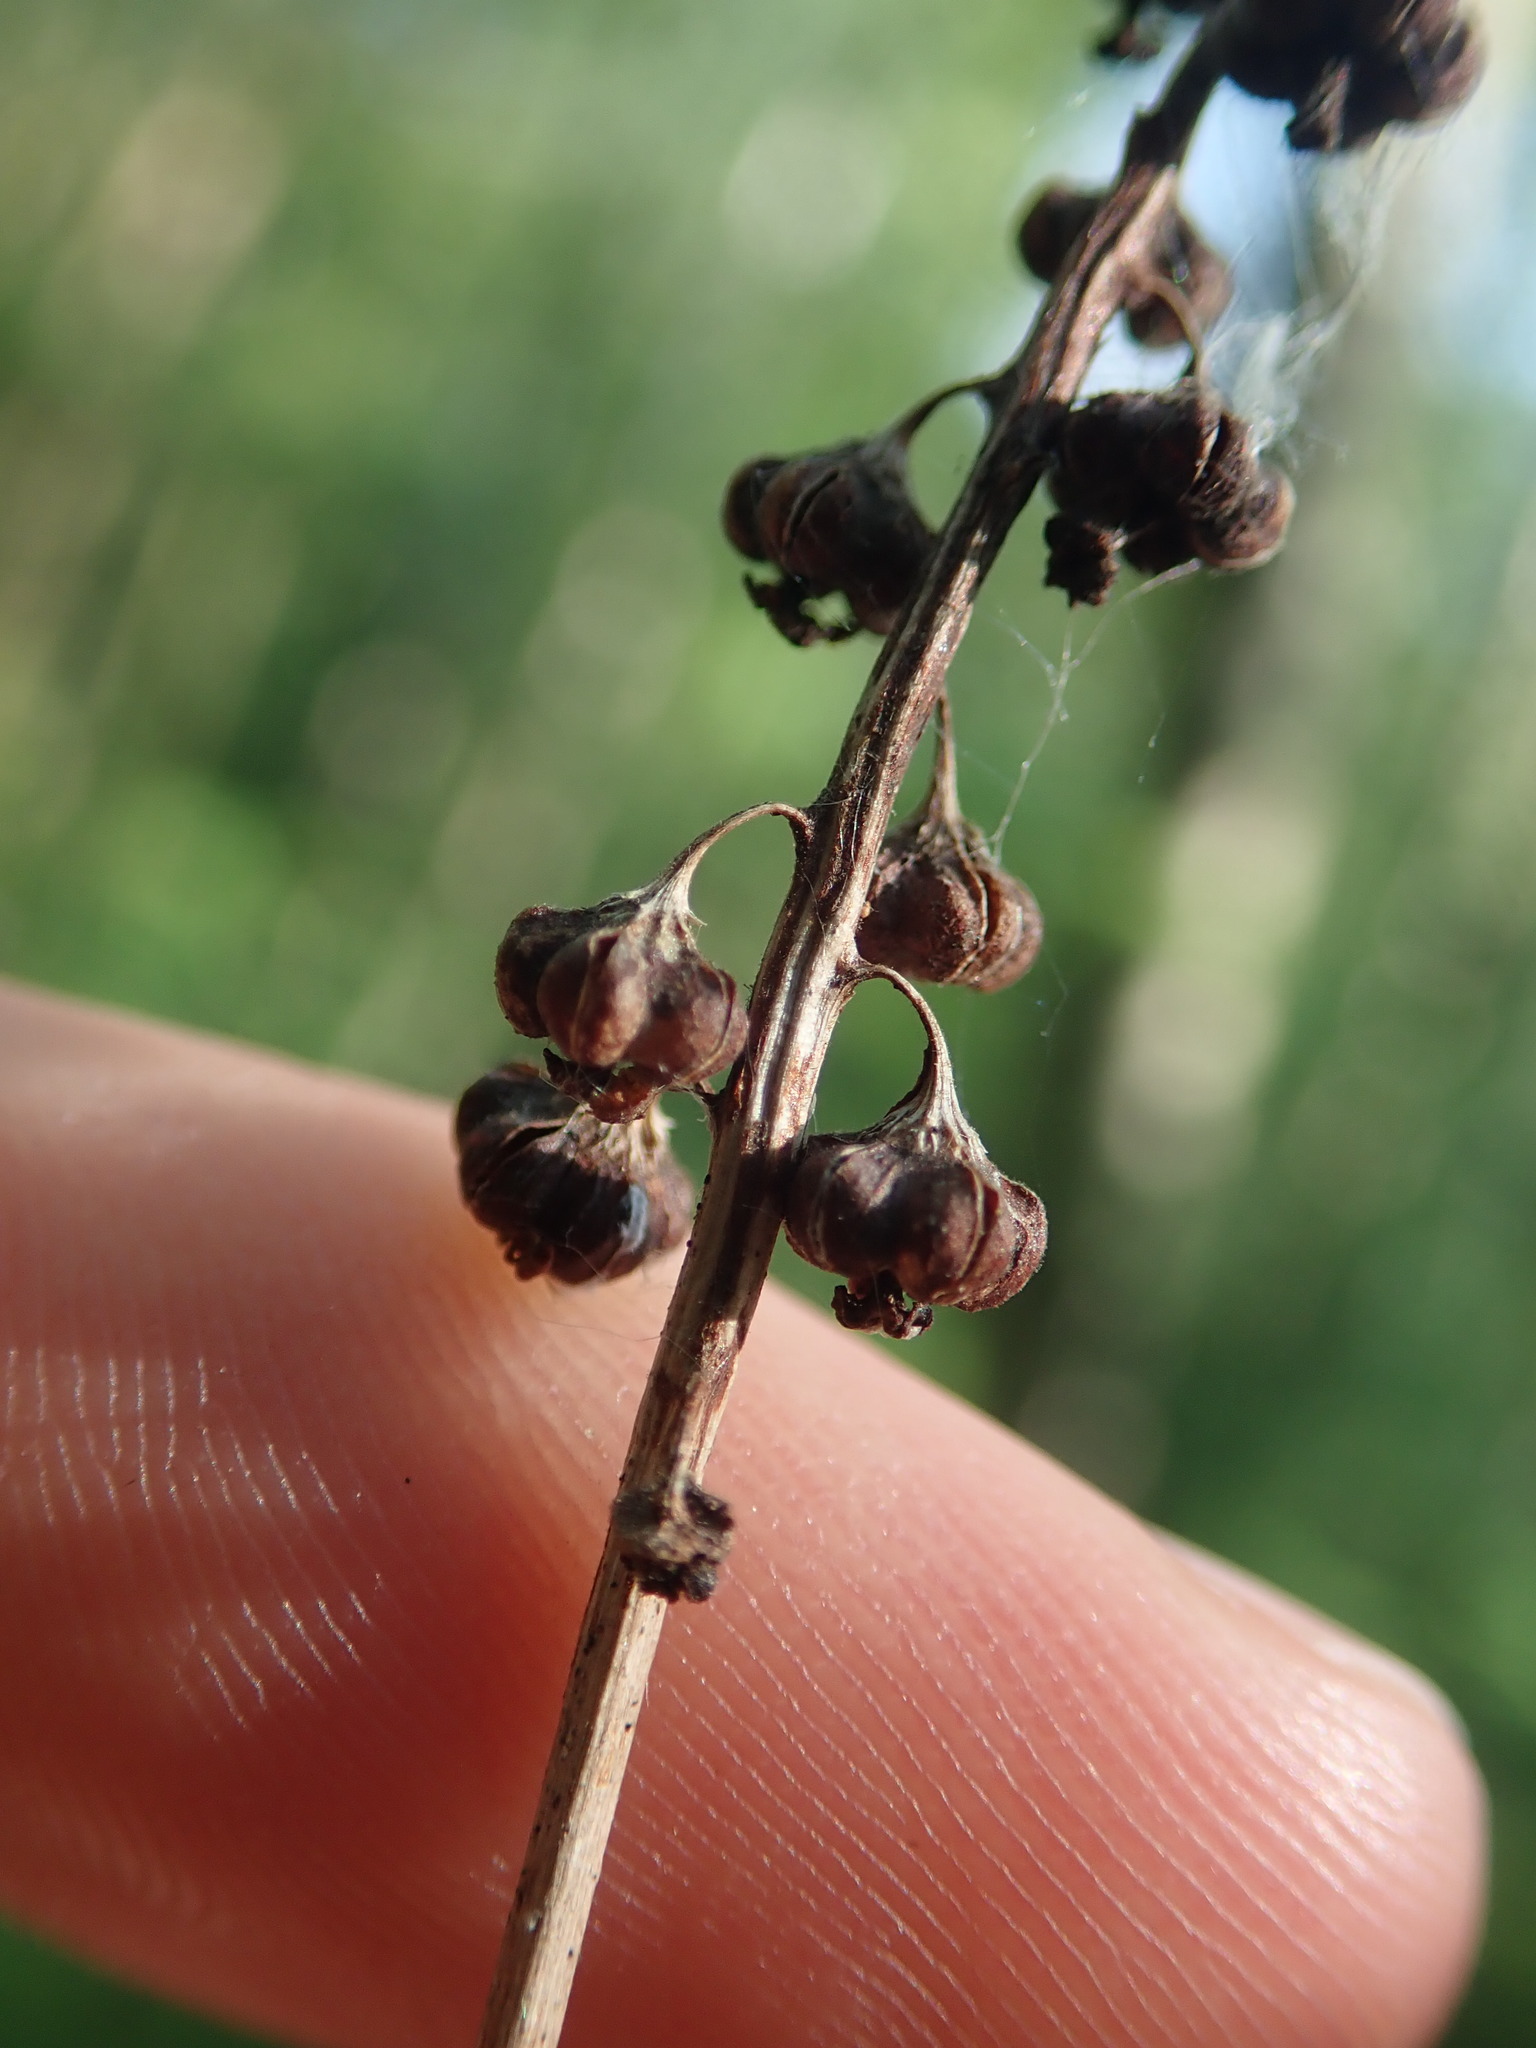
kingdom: Plantae
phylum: Tracheophyta
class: Magnoliopsida
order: Ericales
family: Ericaceae
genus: Pyrola
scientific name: Pyrola minor
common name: Common wintergreen
